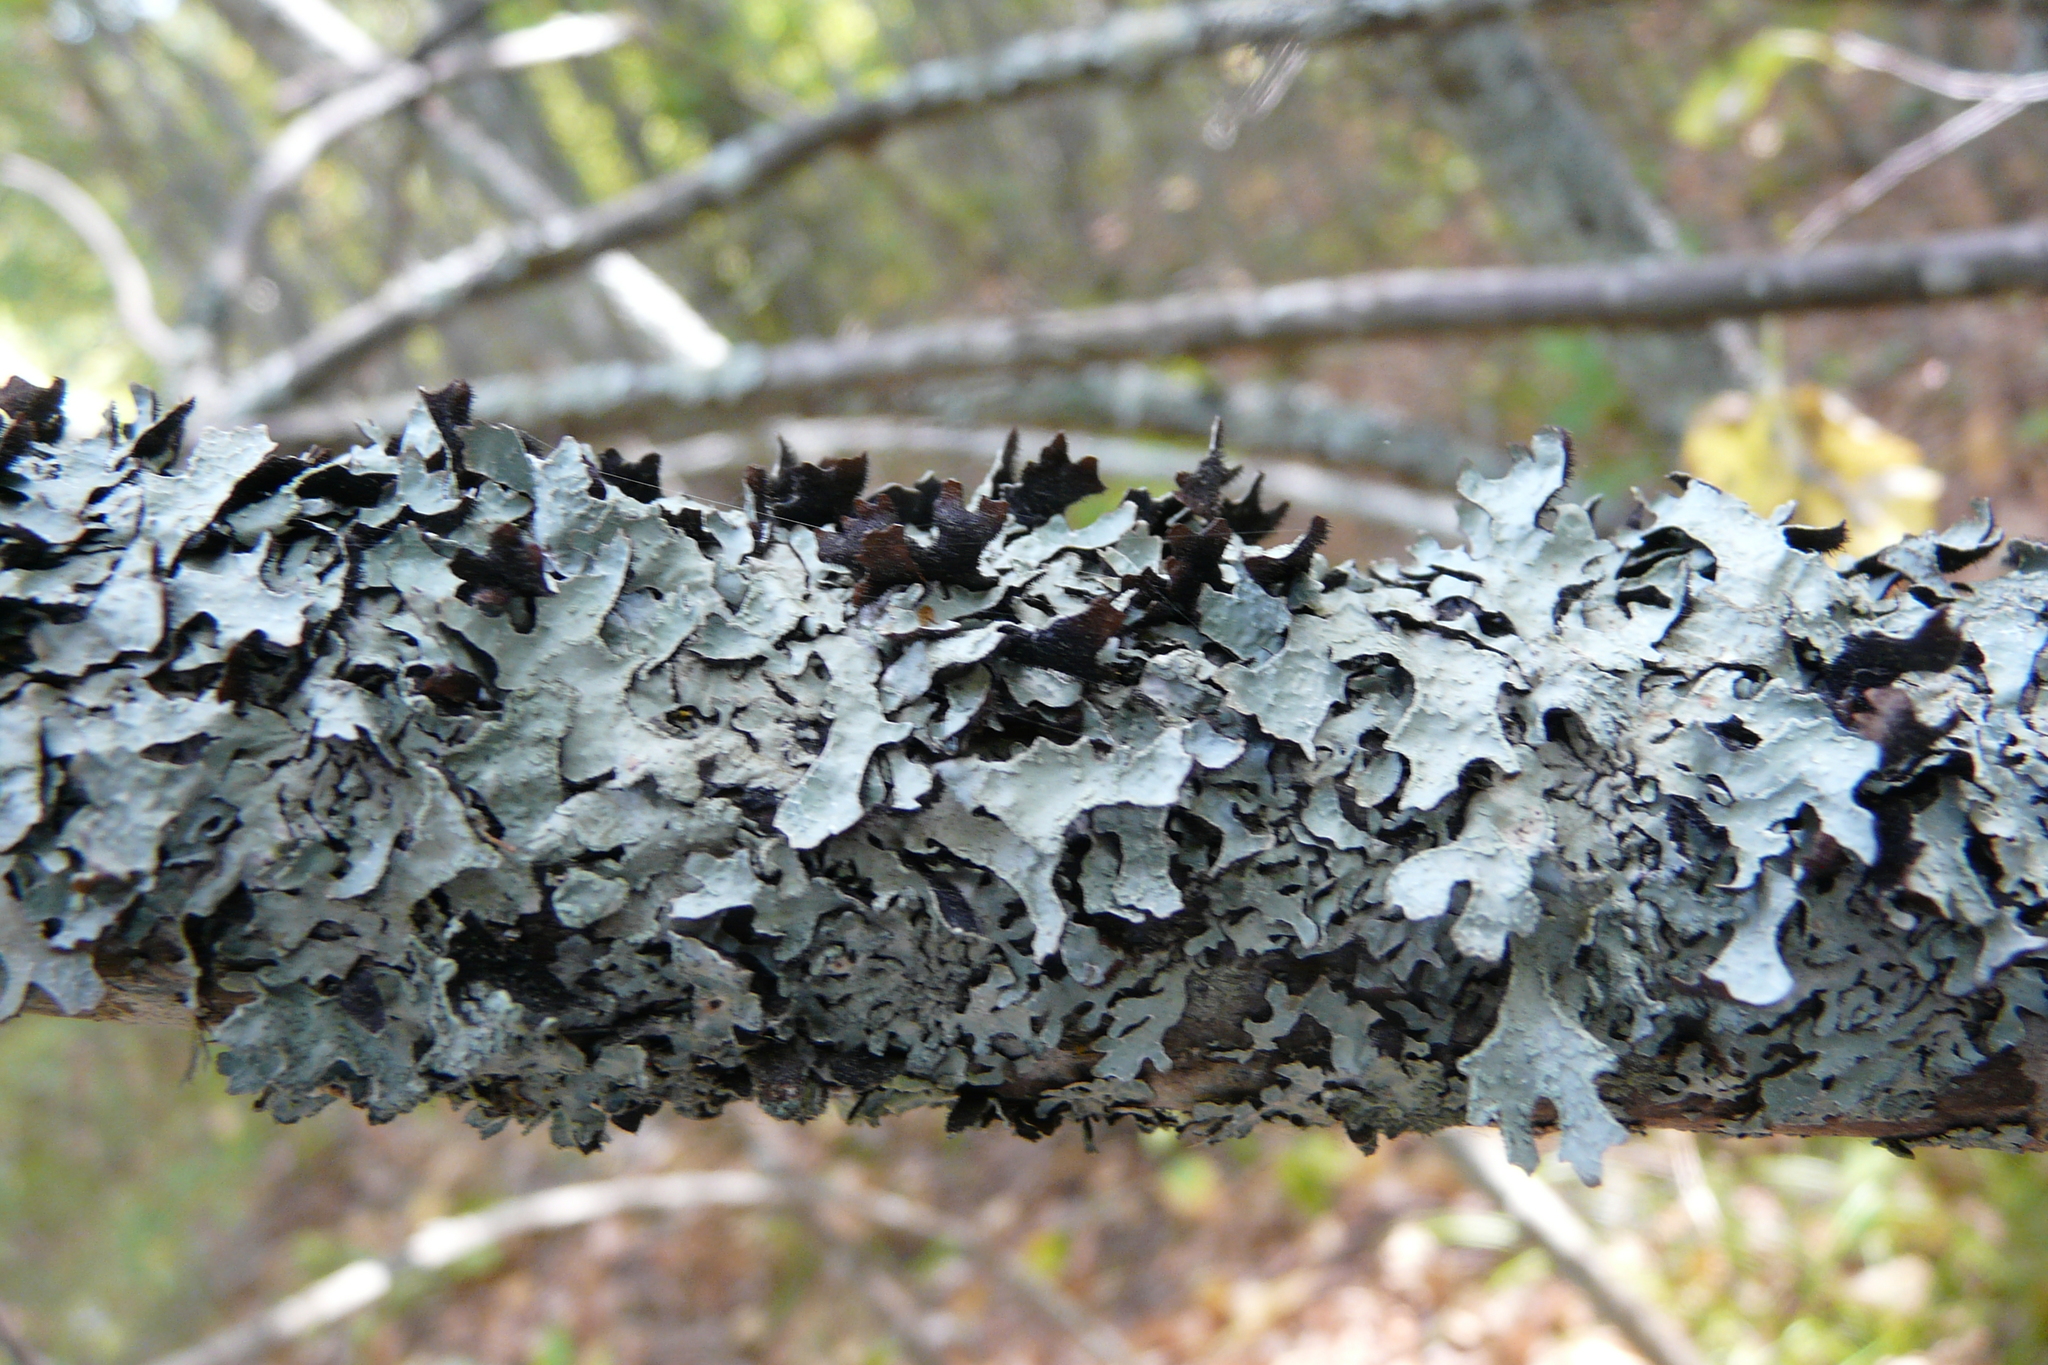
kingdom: Fungi
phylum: Ascomycota
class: Lecanoromycetes
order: Lecanorales
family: Parmeliaceae
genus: Parmelia
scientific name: Parmelia sulcata
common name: Netted shield lichen
